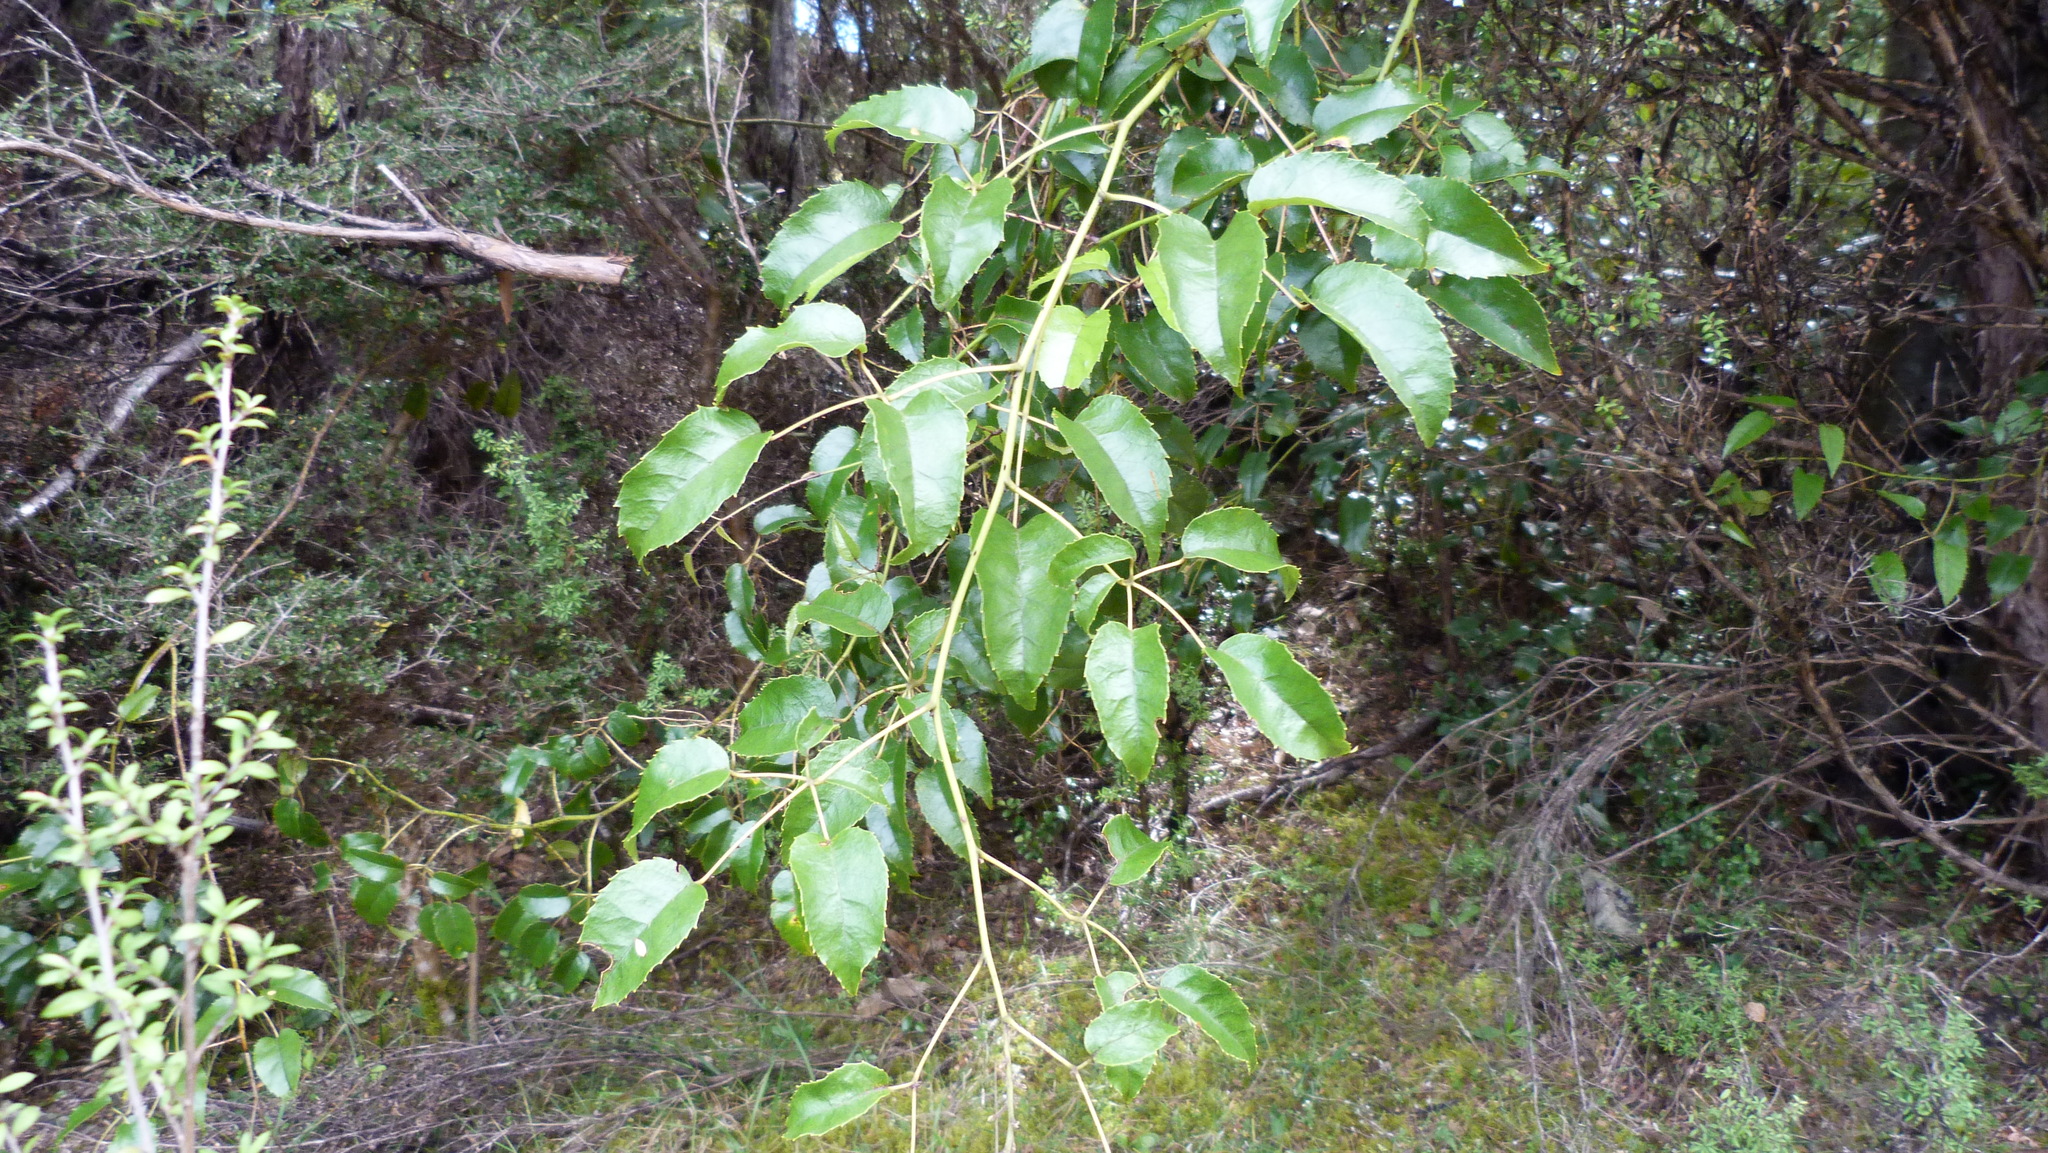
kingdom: Plantae
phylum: Tracheophyta
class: Magnoliopsida
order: Rosales
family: Rosaceae
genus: Rubus
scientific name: Rubus cissoides
